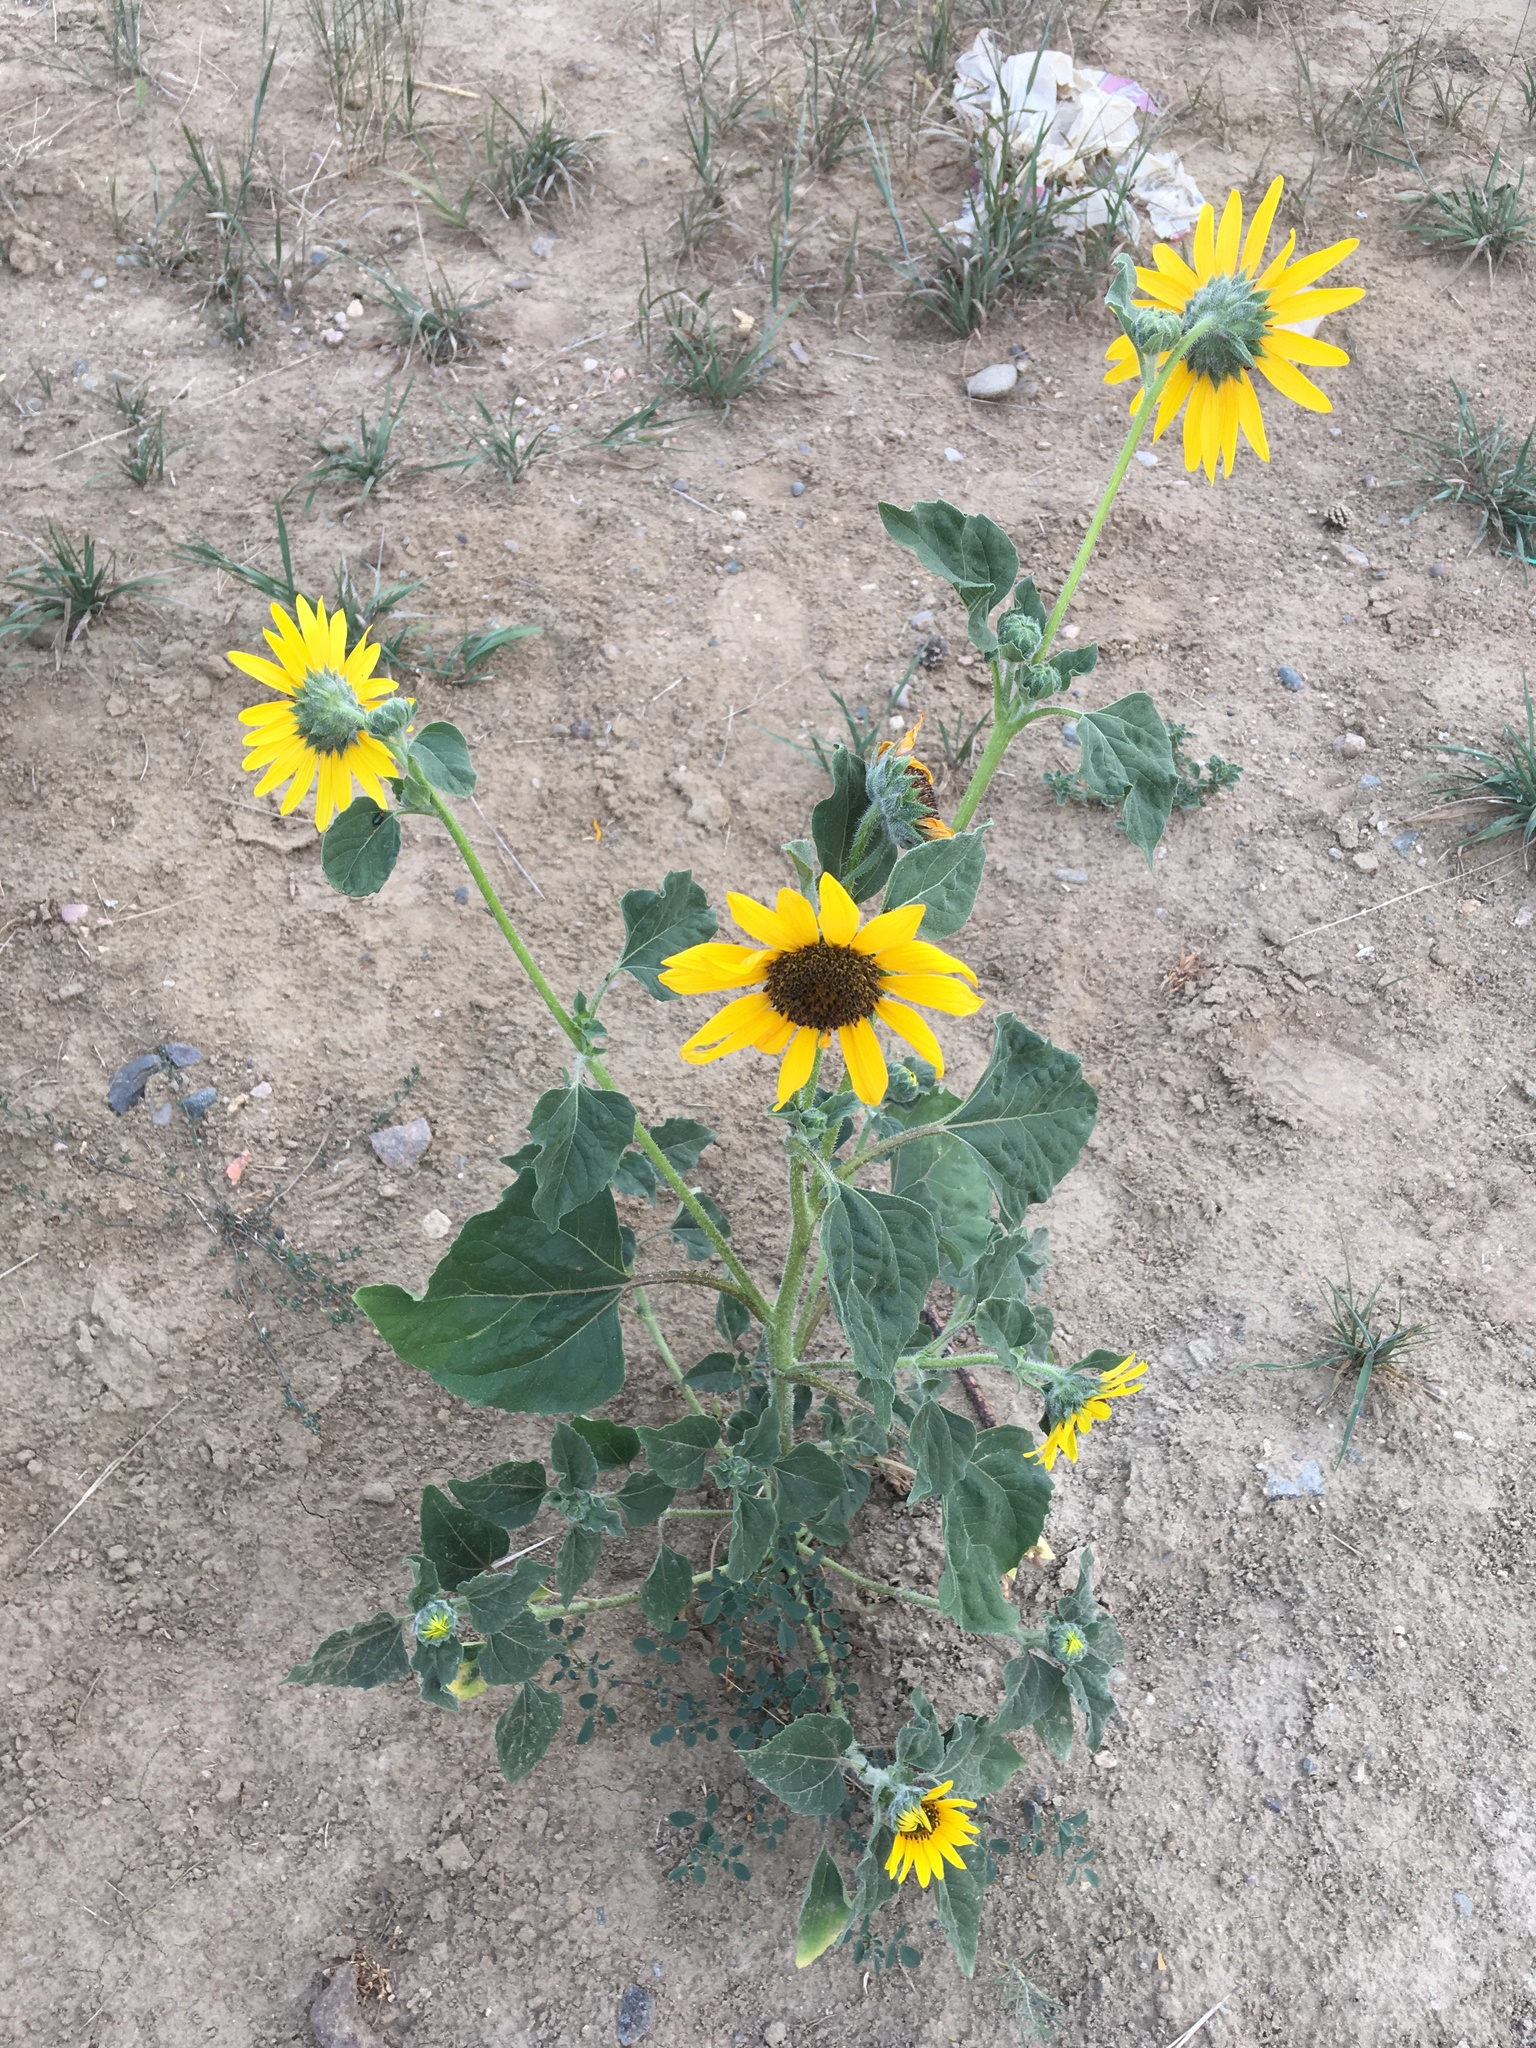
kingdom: Plantae
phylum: Tracheophyta
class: Magnoliopsida
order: Asterales
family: Asteraceae
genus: Helianthus
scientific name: Helianthus annuus
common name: Sunflower
